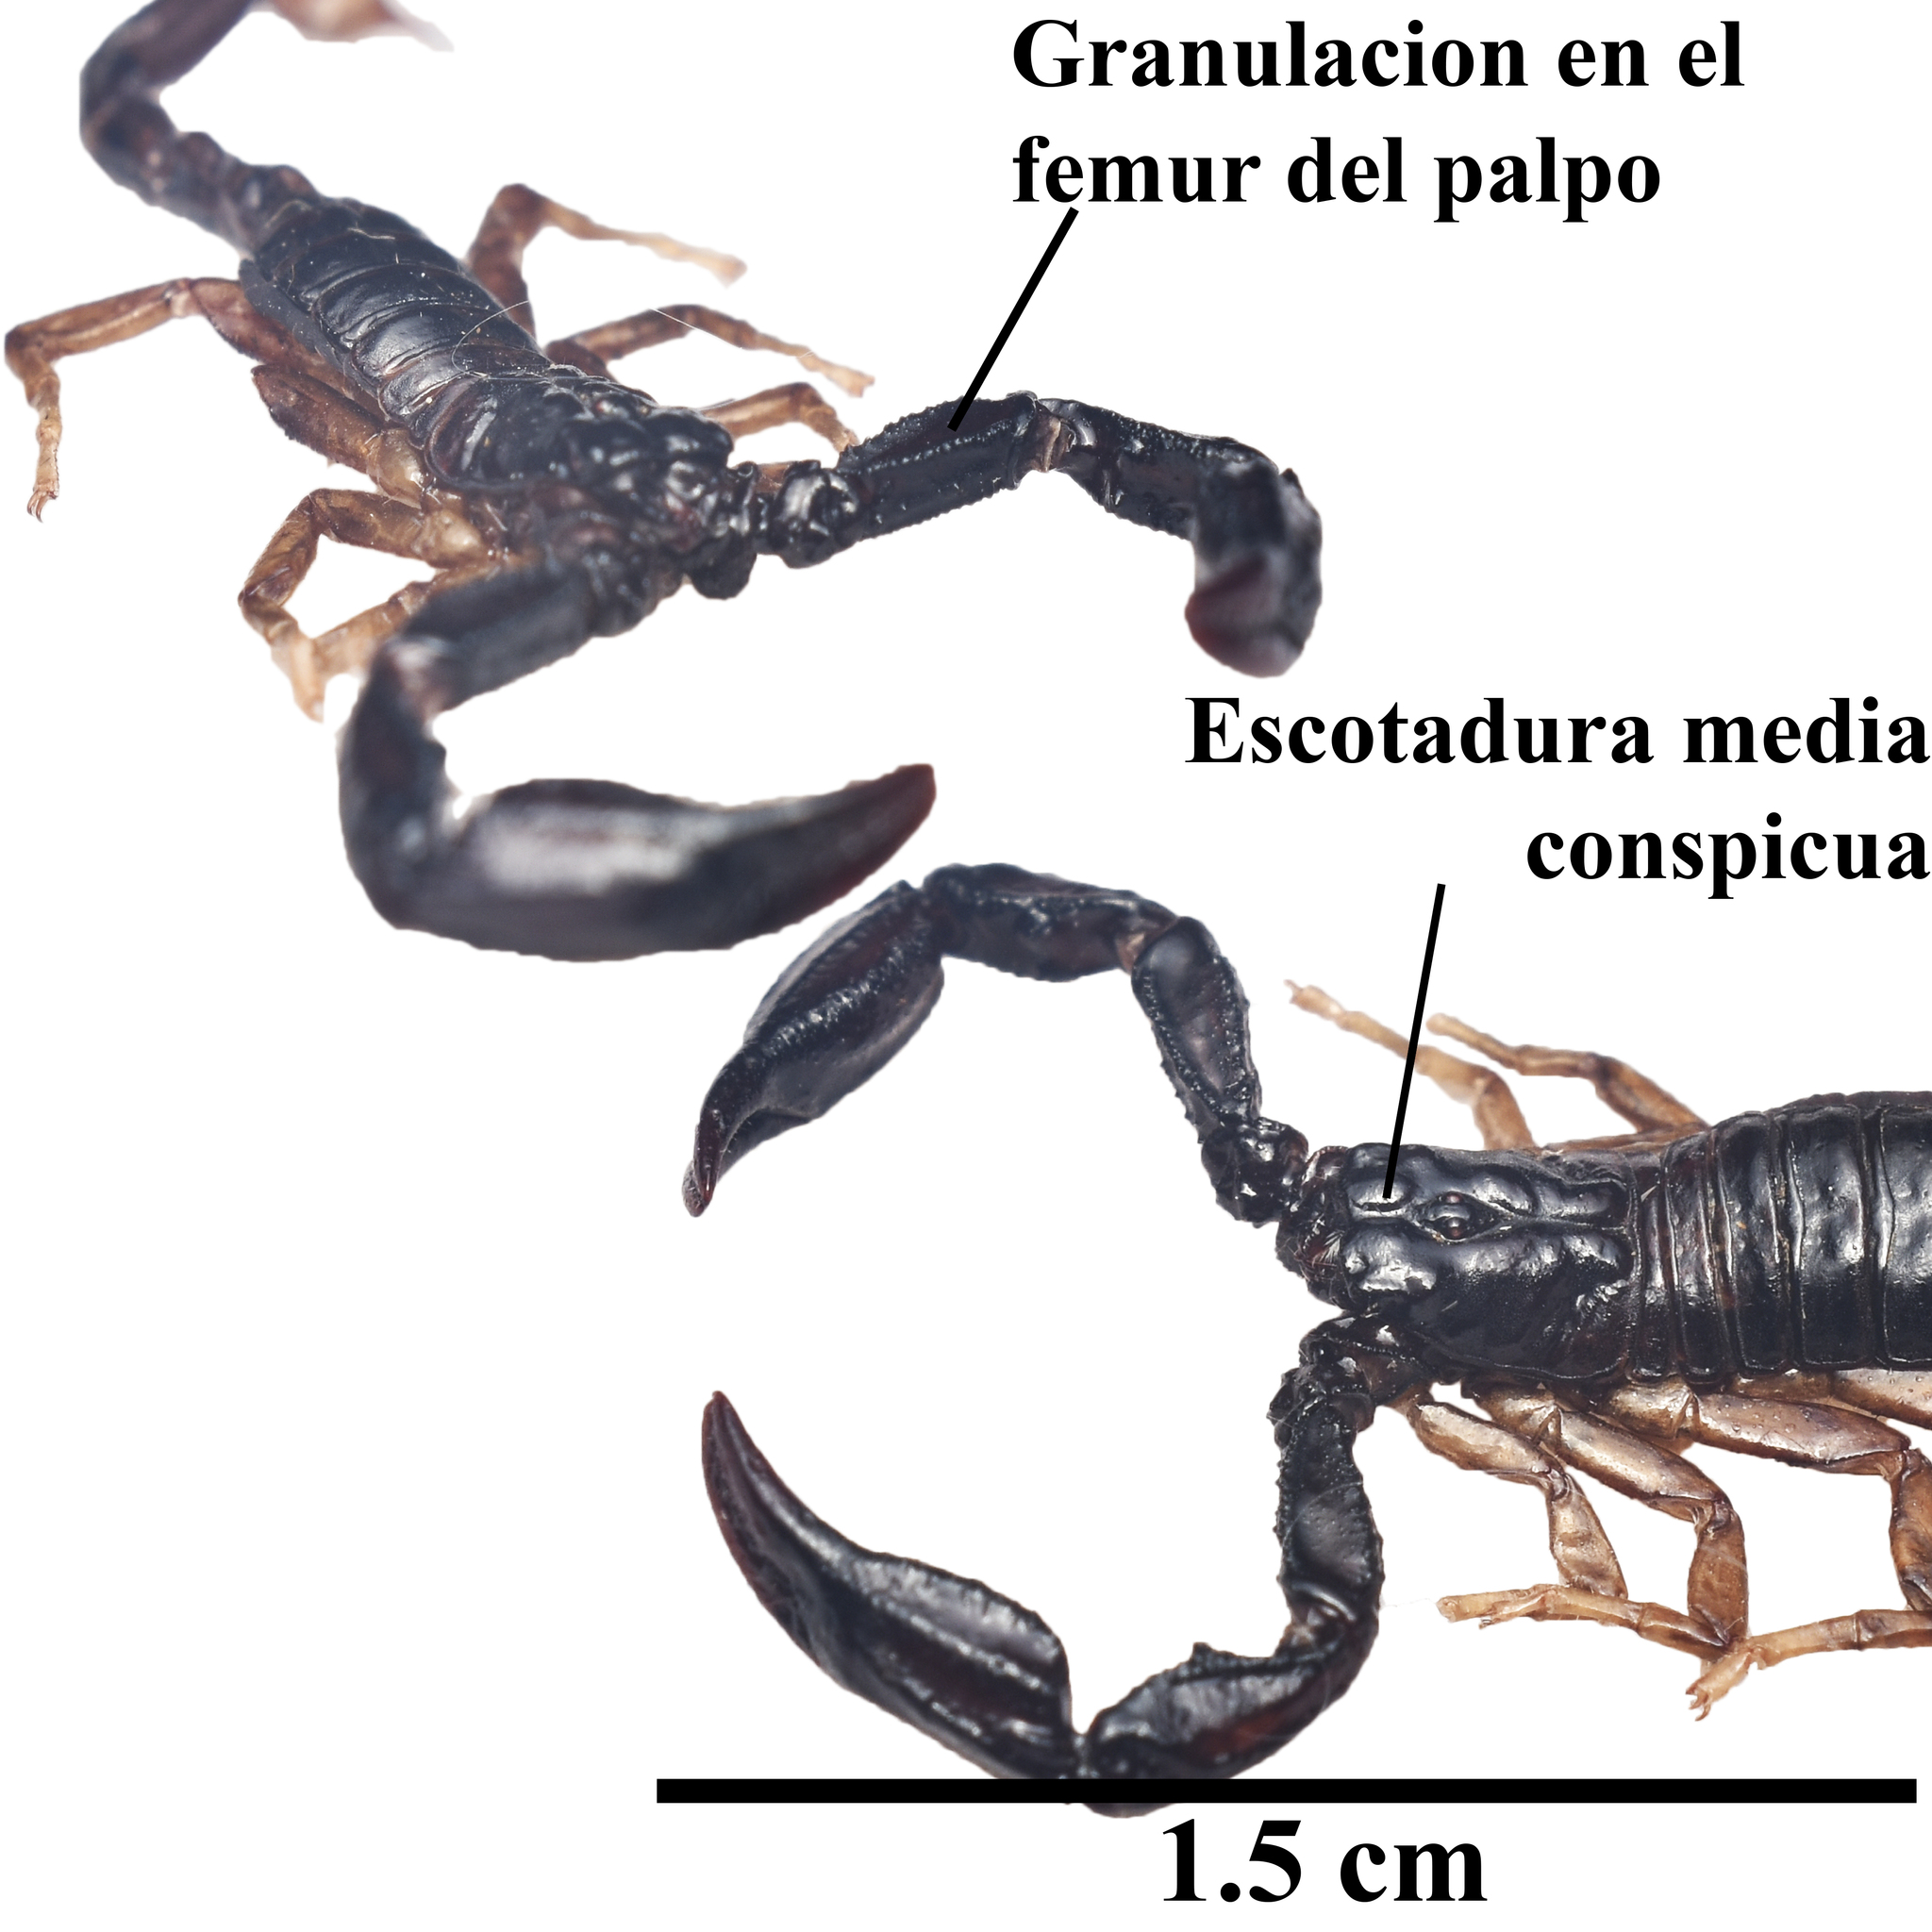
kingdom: Animalia
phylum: Arthropoda
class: Arachnida
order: Scorpiones
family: Chactidae
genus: Chactas
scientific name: Chactas ozendai
